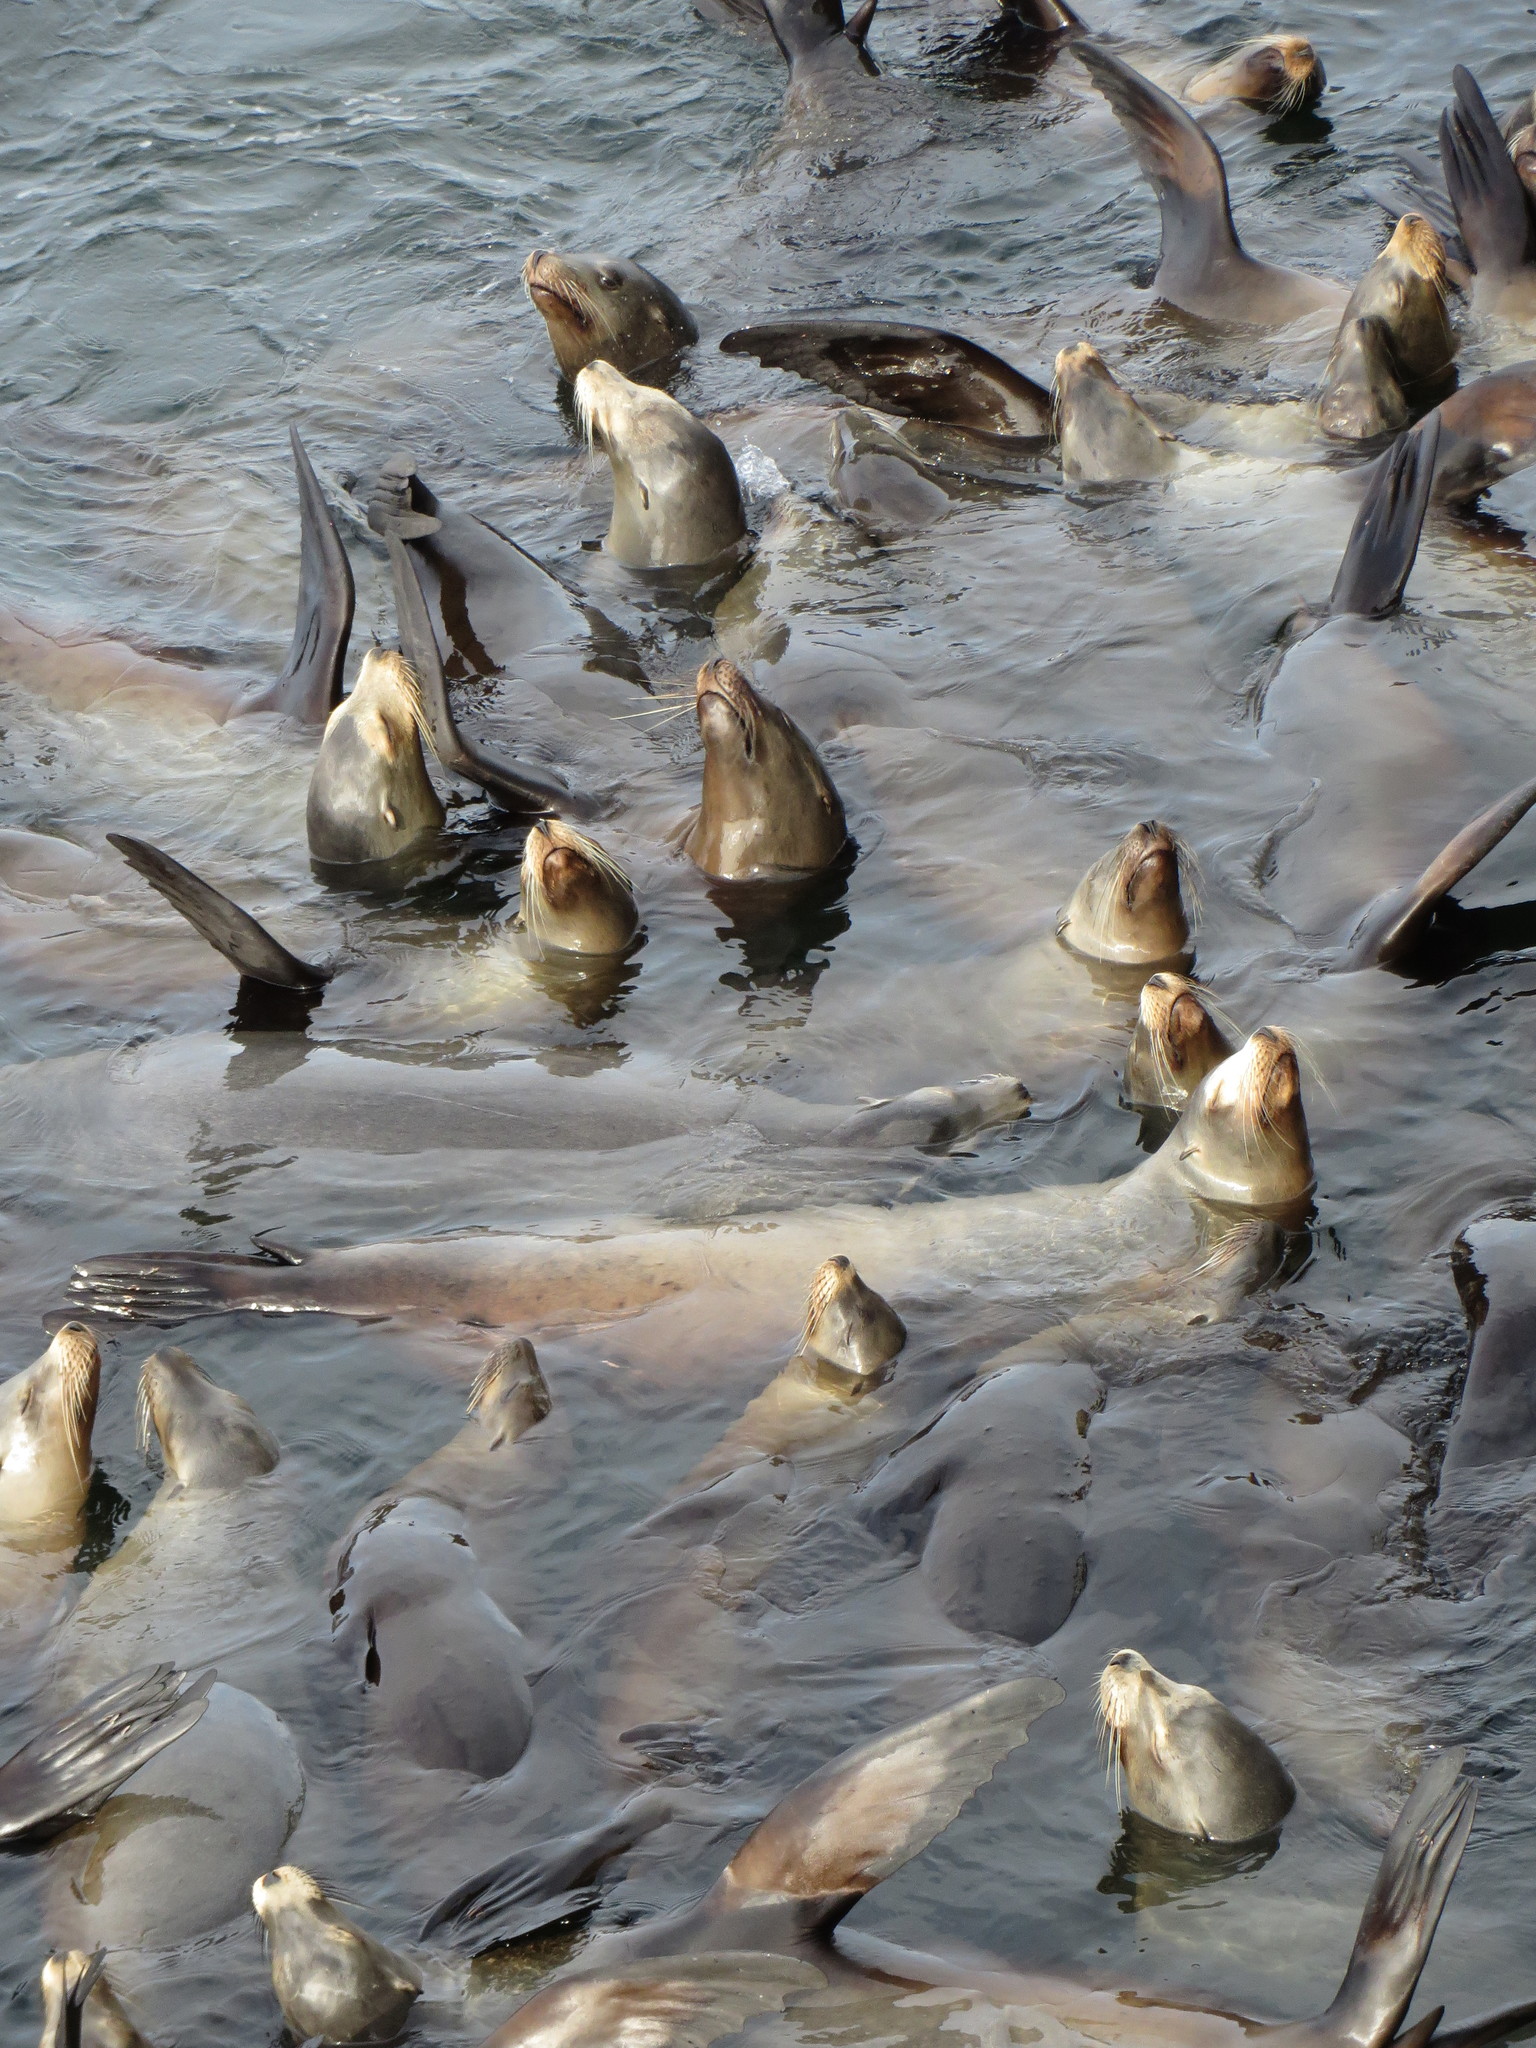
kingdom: Animalia
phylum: Chordata
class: Mammalia
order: Carnivora
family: Otariidae
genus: Zalophus
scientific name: Zalophus californianus
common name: California sea lion
